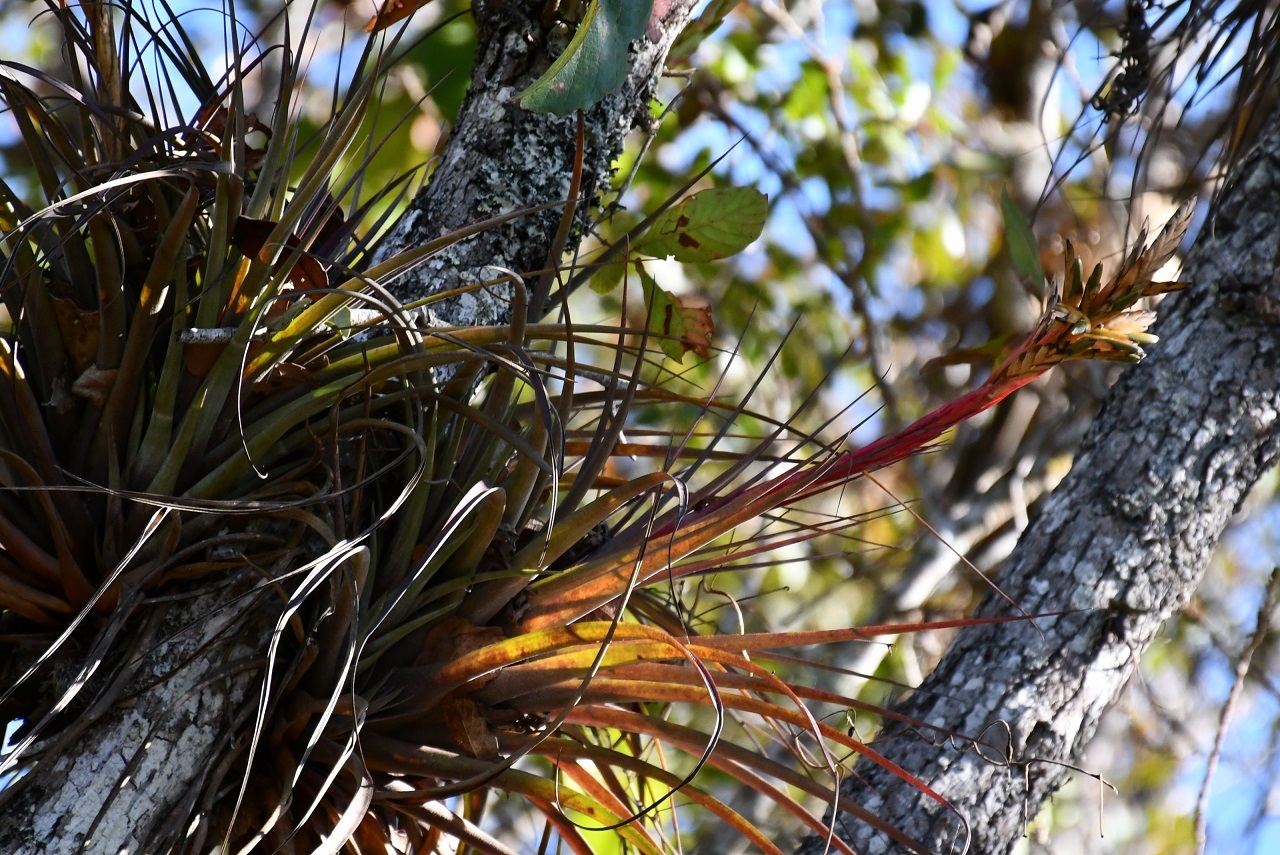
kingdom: Plantae
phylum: Tracheophyta
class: Liliopsida
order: Poales
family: Bromeliaceae
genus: Tillandsia
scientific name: Tillandsia polita
